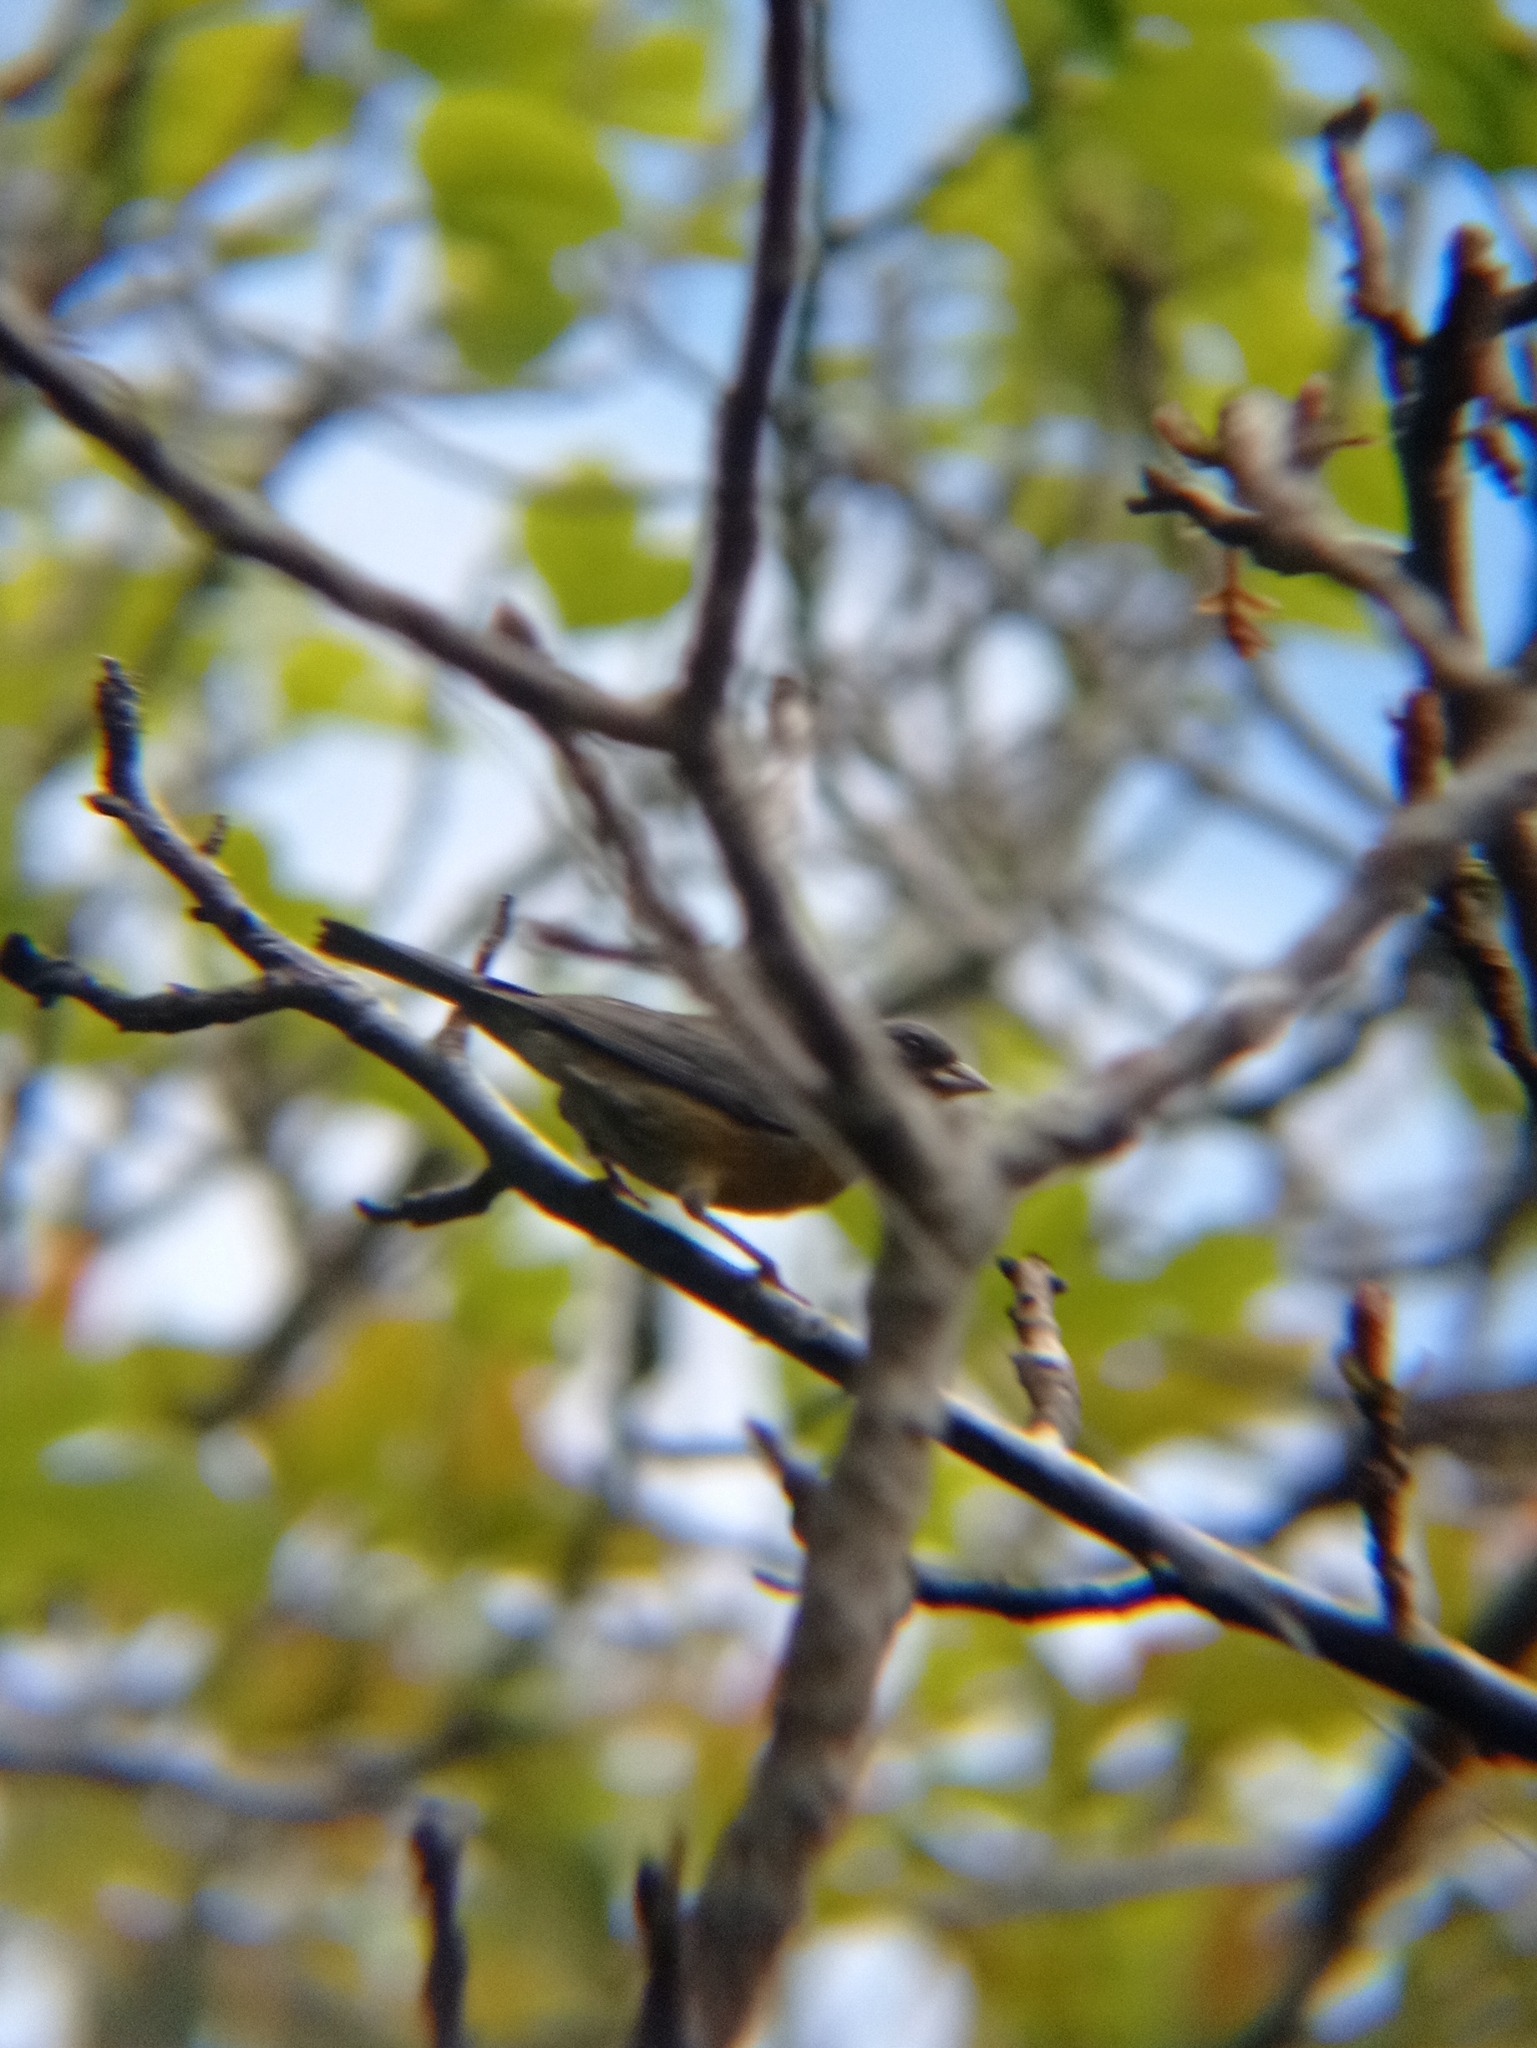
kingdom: Animalia
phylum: Chordata
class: Aves
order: Passeriformes
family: Thraupidae
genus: Phrygilus
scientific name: Phrygilus gayi
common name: Grey-hooded sierra finch
